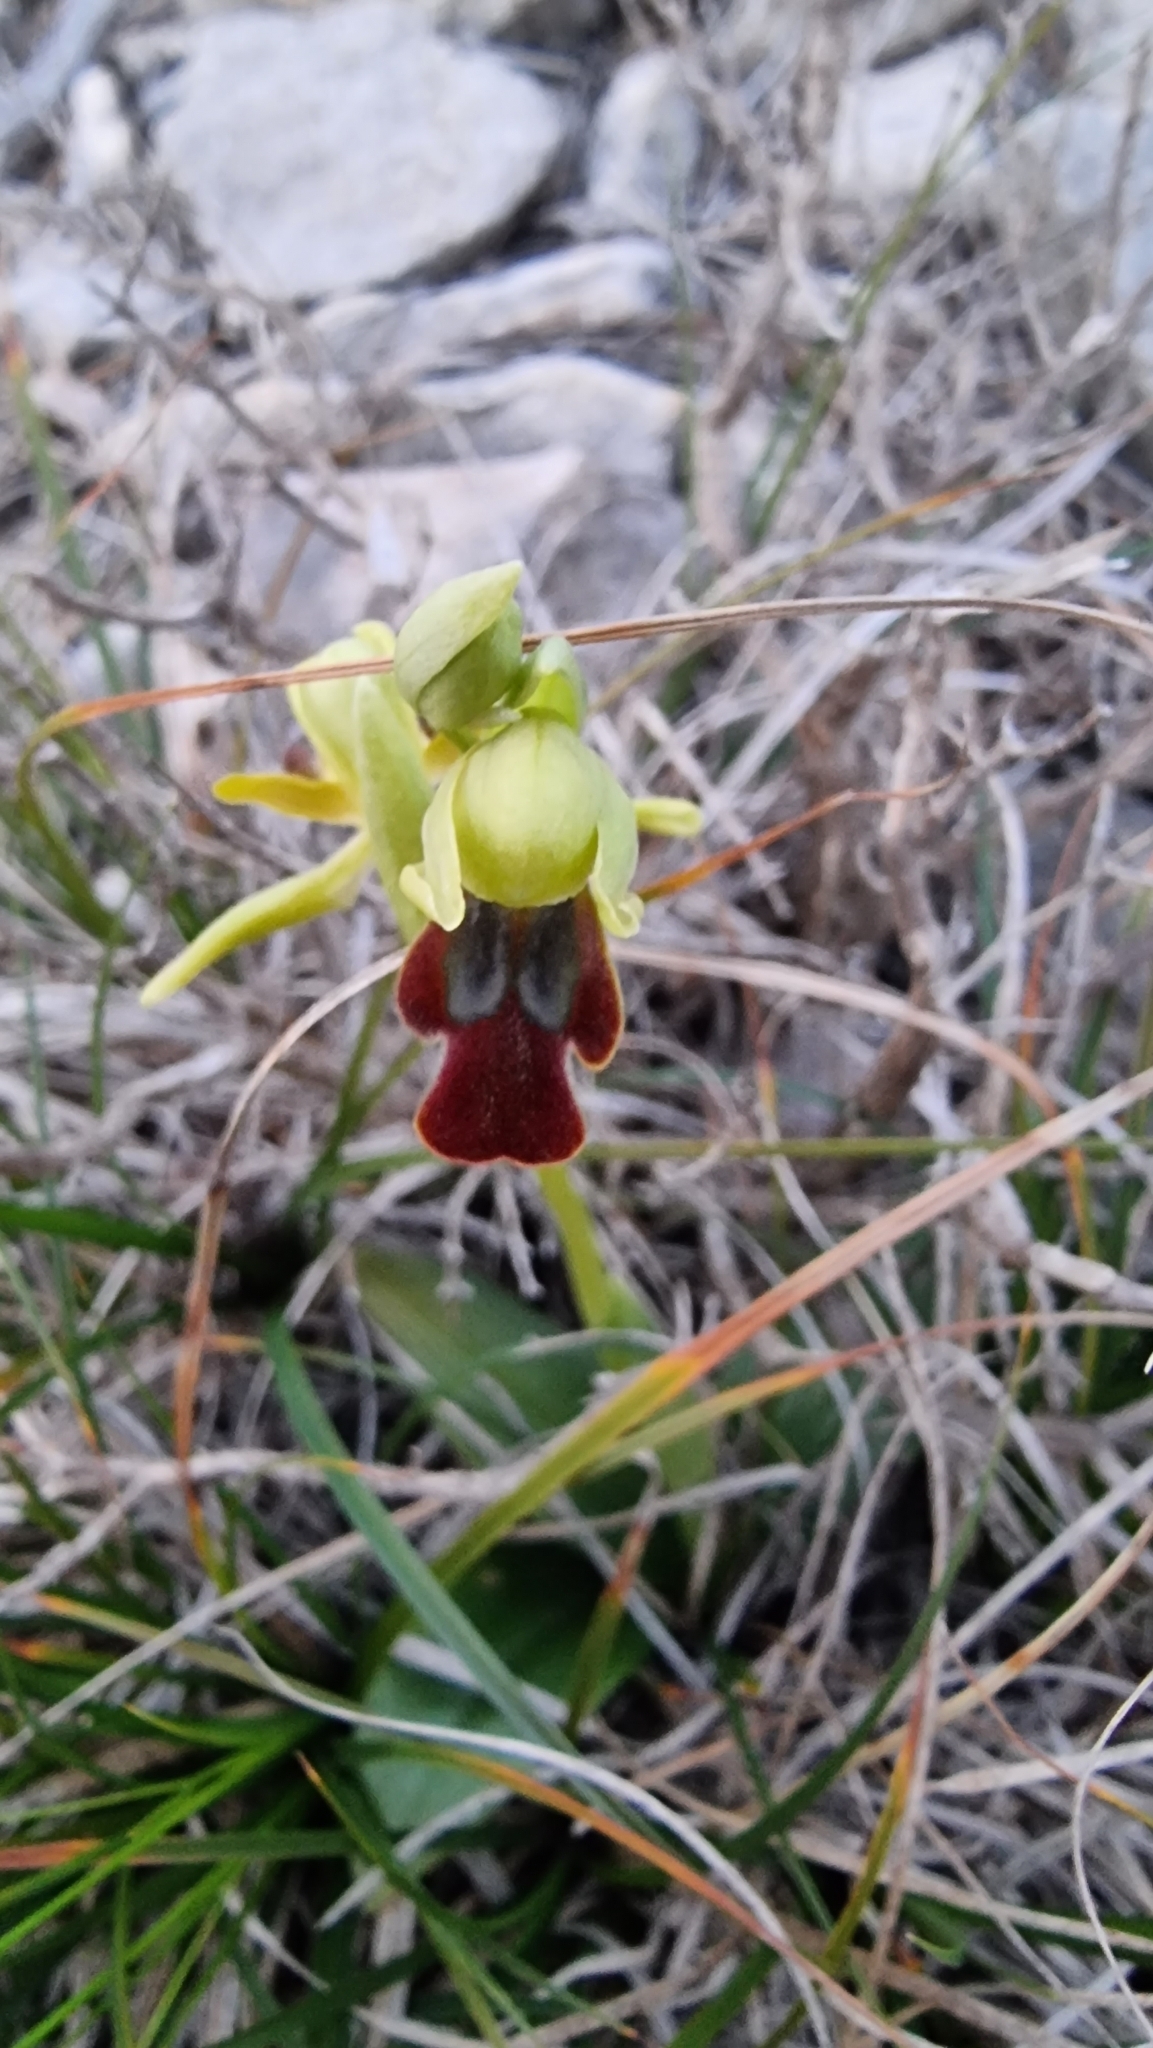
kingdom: Plantae
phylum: Tracheophyta
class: Liliopsida
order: Asparagales
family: Orchidaceae
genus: Ophrys
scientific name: Ophrys fusca
